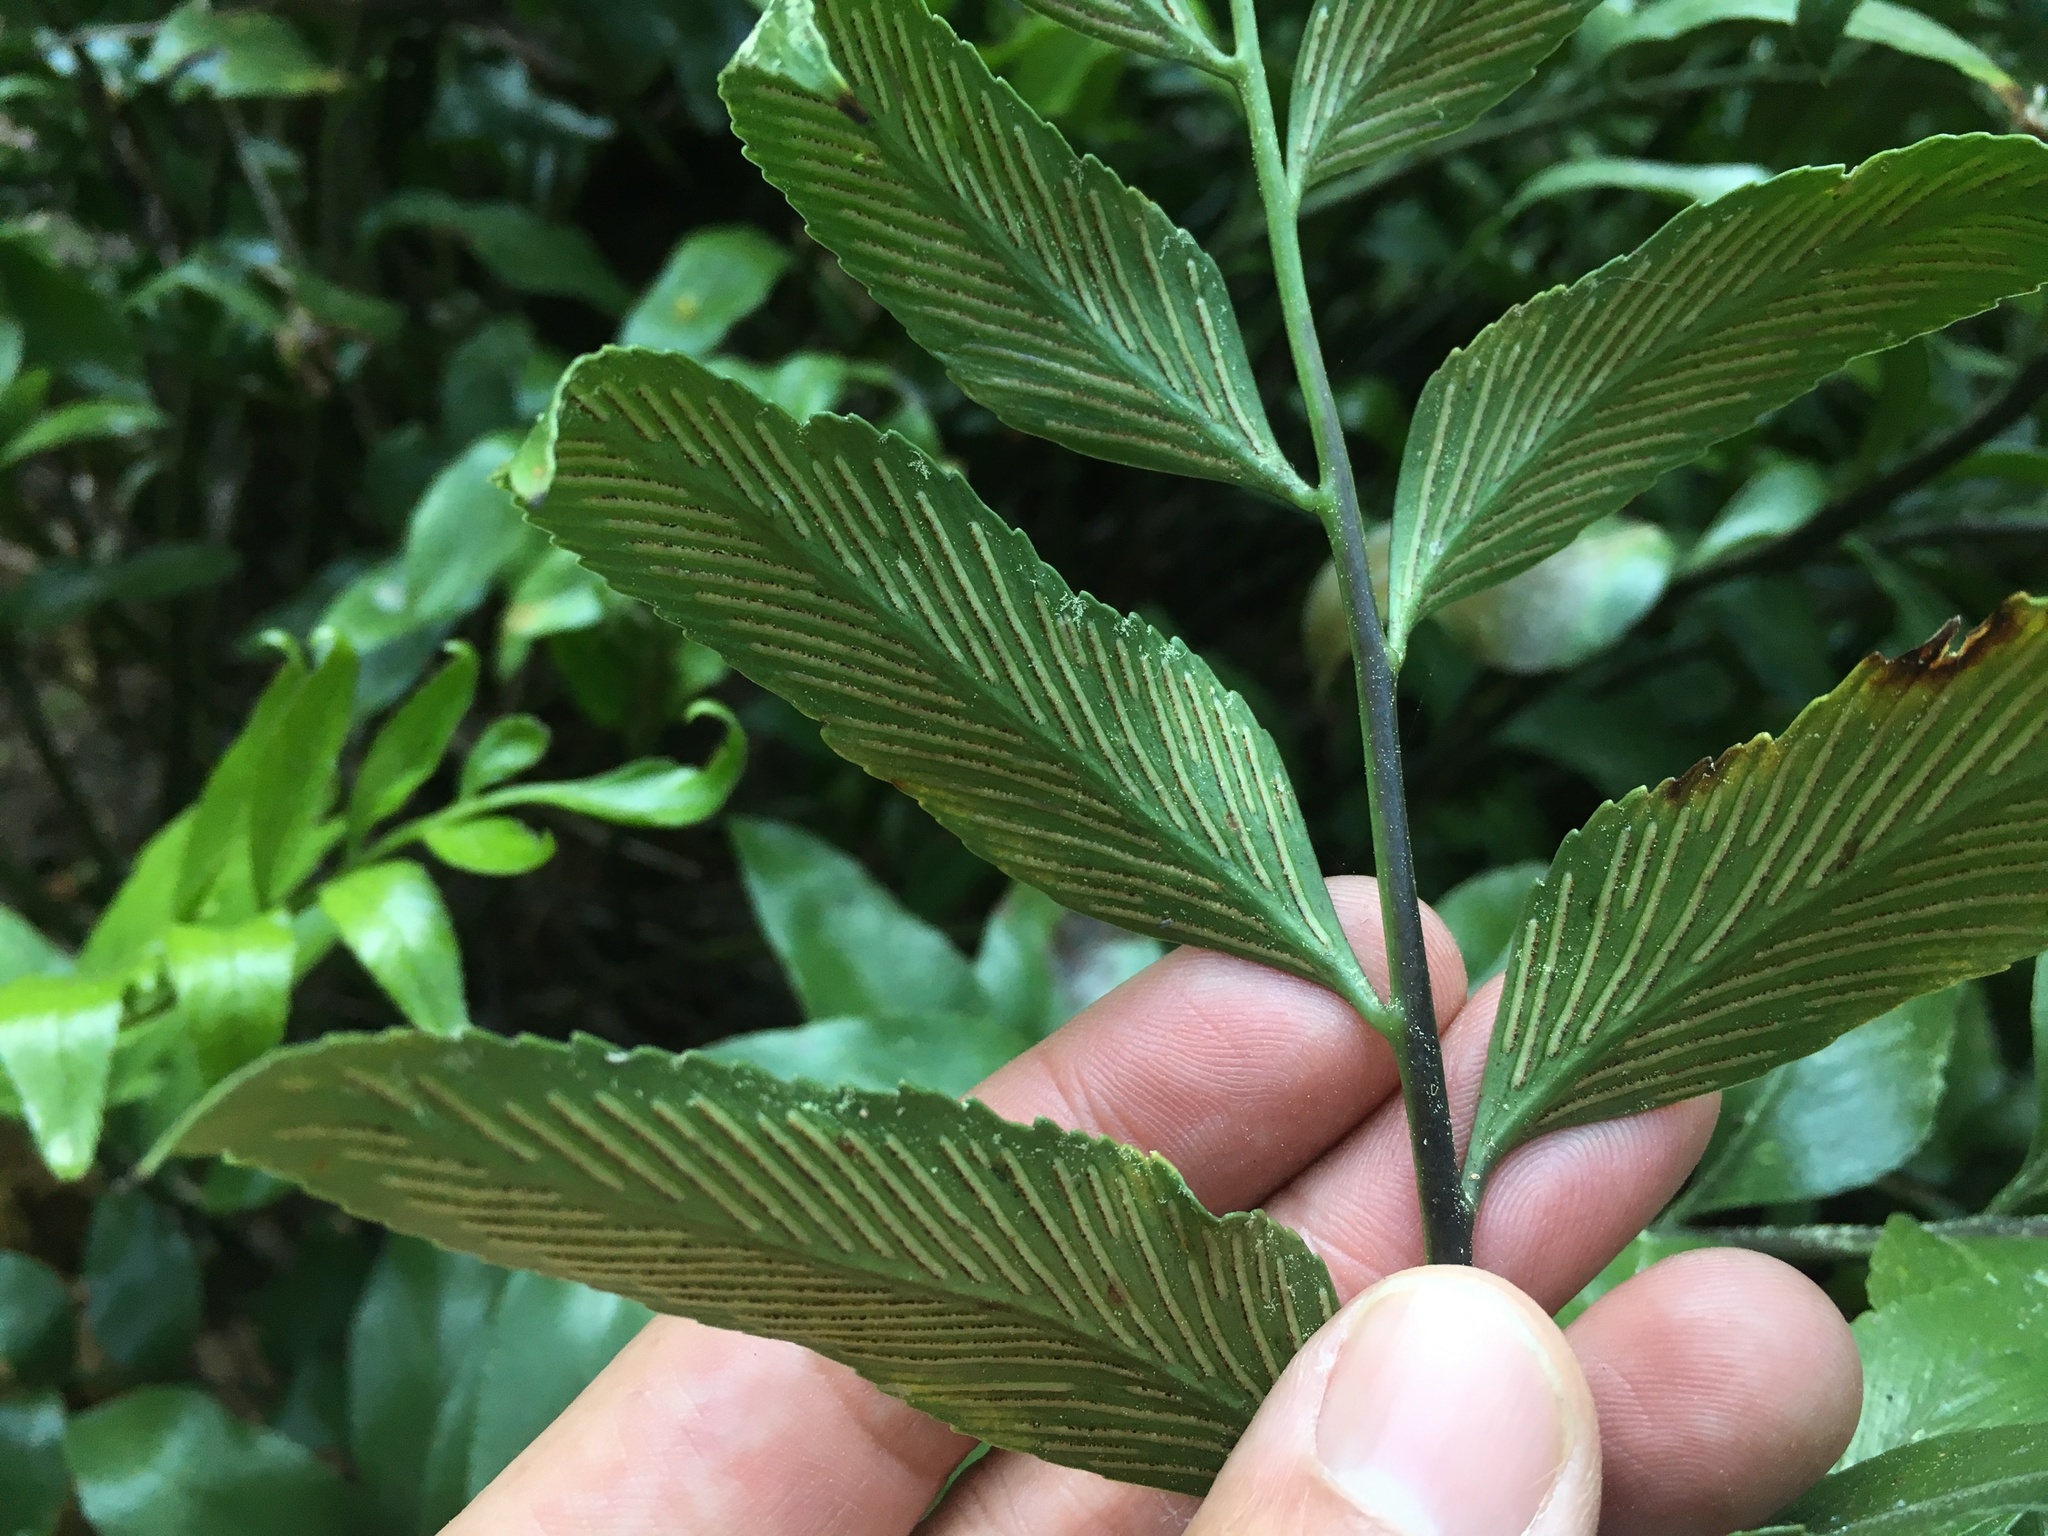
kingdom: Plantae
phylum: Tracheophyta
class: Polypodiopsida
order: Polypodiales
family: Aspleniaceae
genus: Asplenium
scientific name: Asplenium oblongifolium
